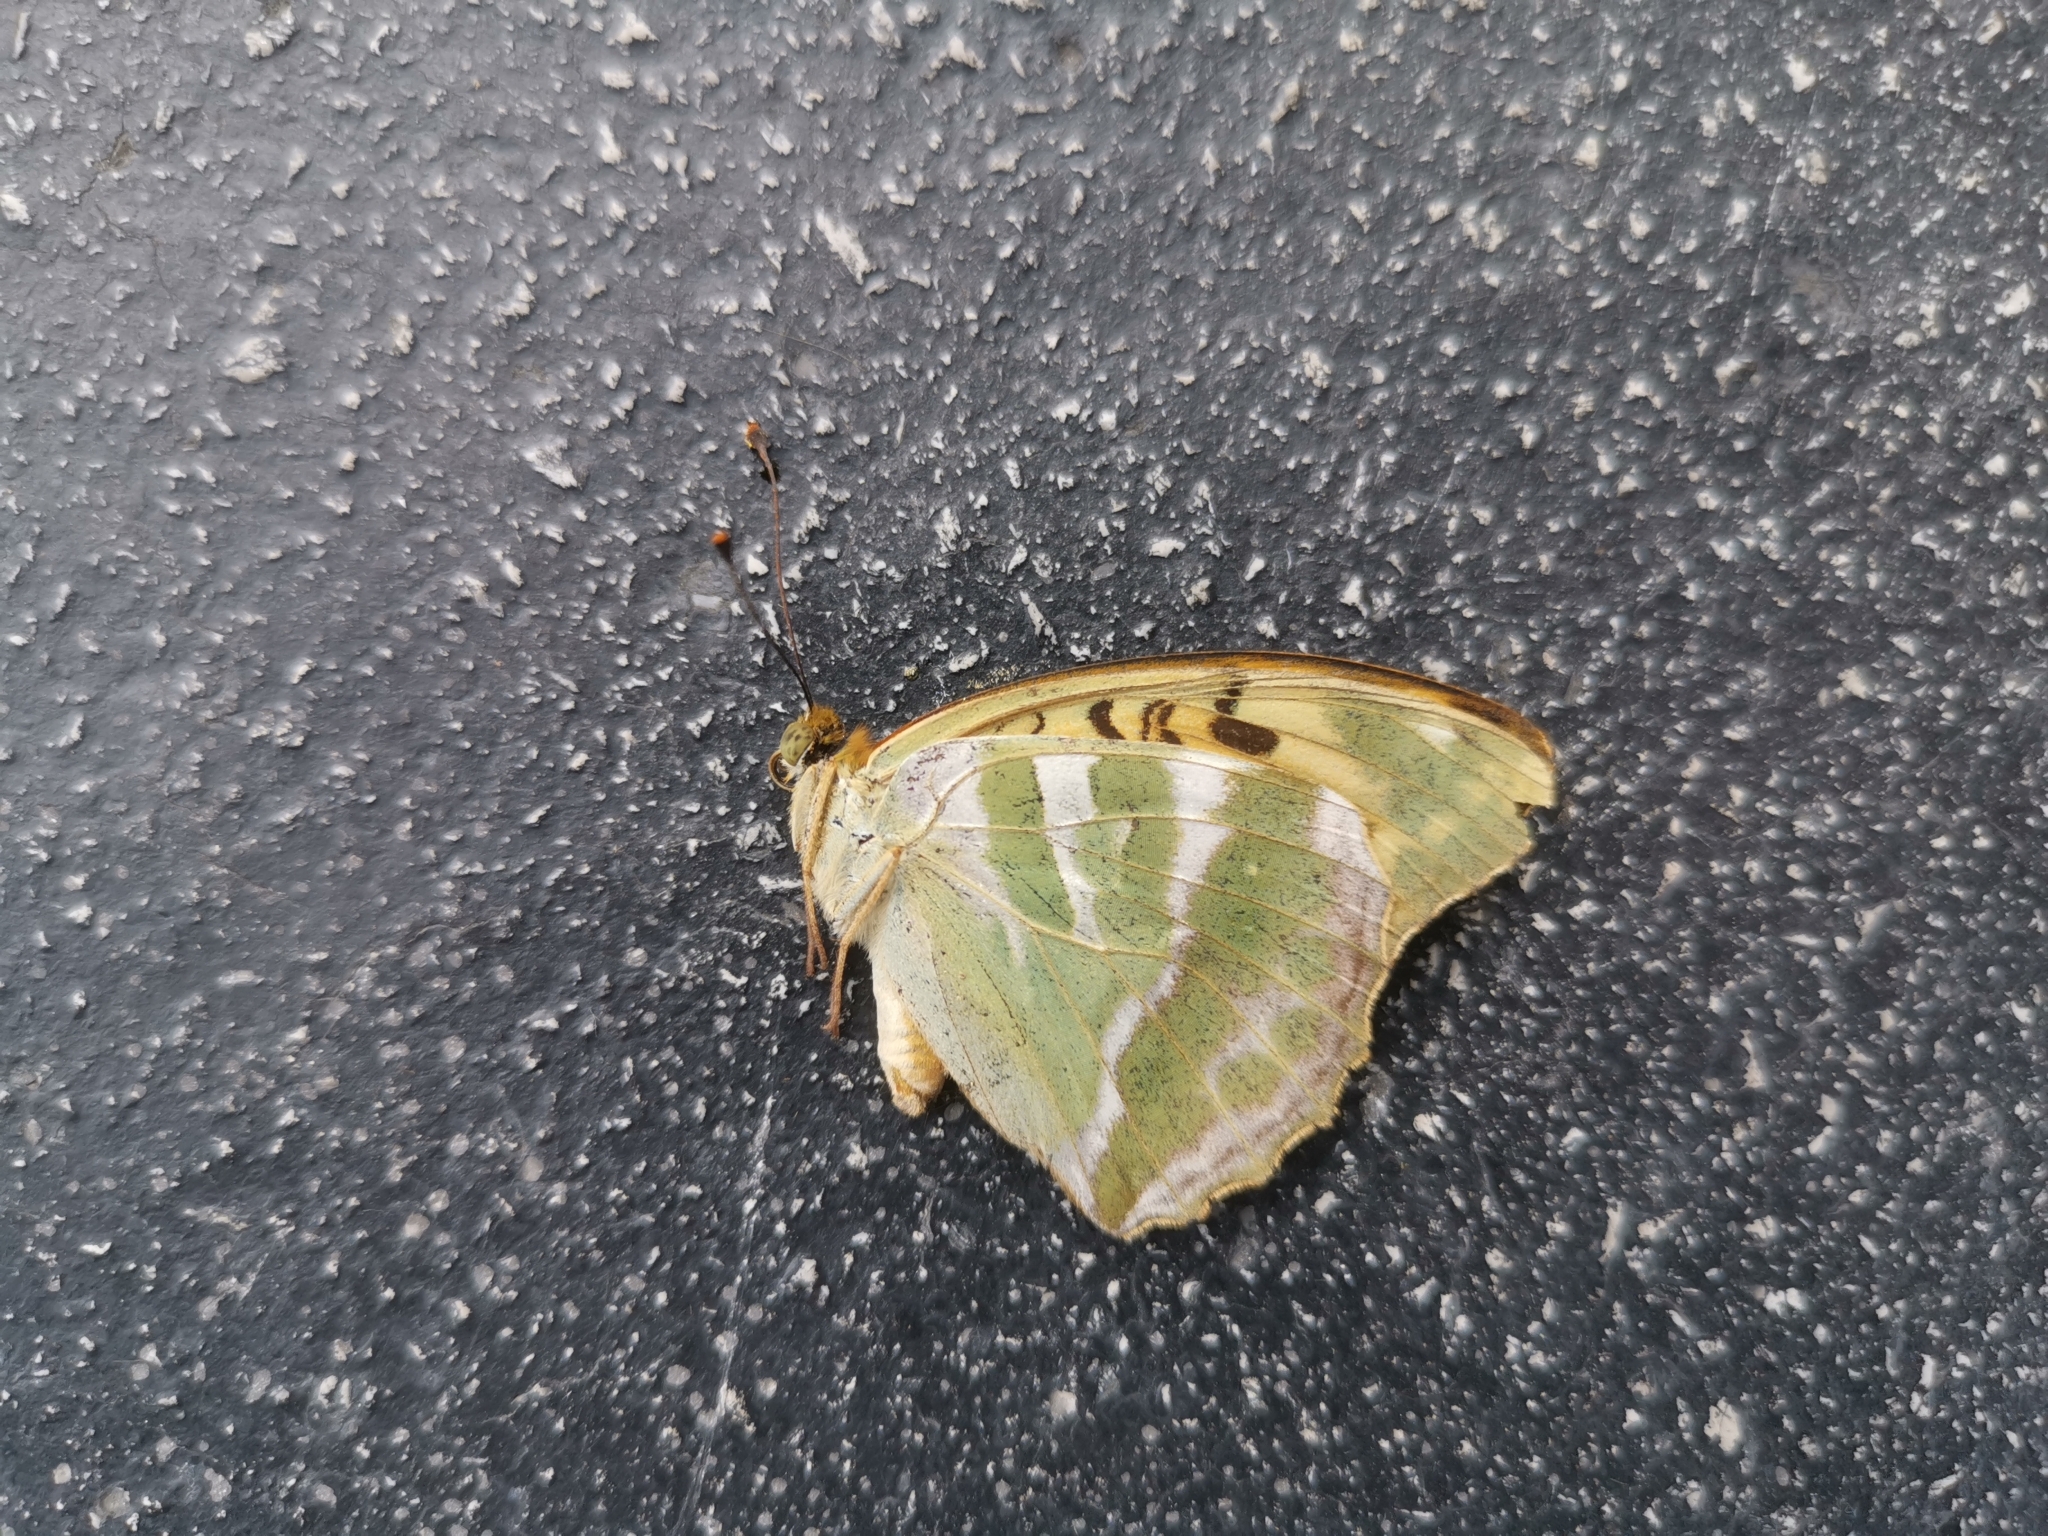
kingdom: Animalia
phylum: Arthropoda
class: Insecta
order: Lepidoptera
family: Nymphalidae
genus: Argynnis
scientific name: Argynnis paphia
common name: Silver-washed fritillary
